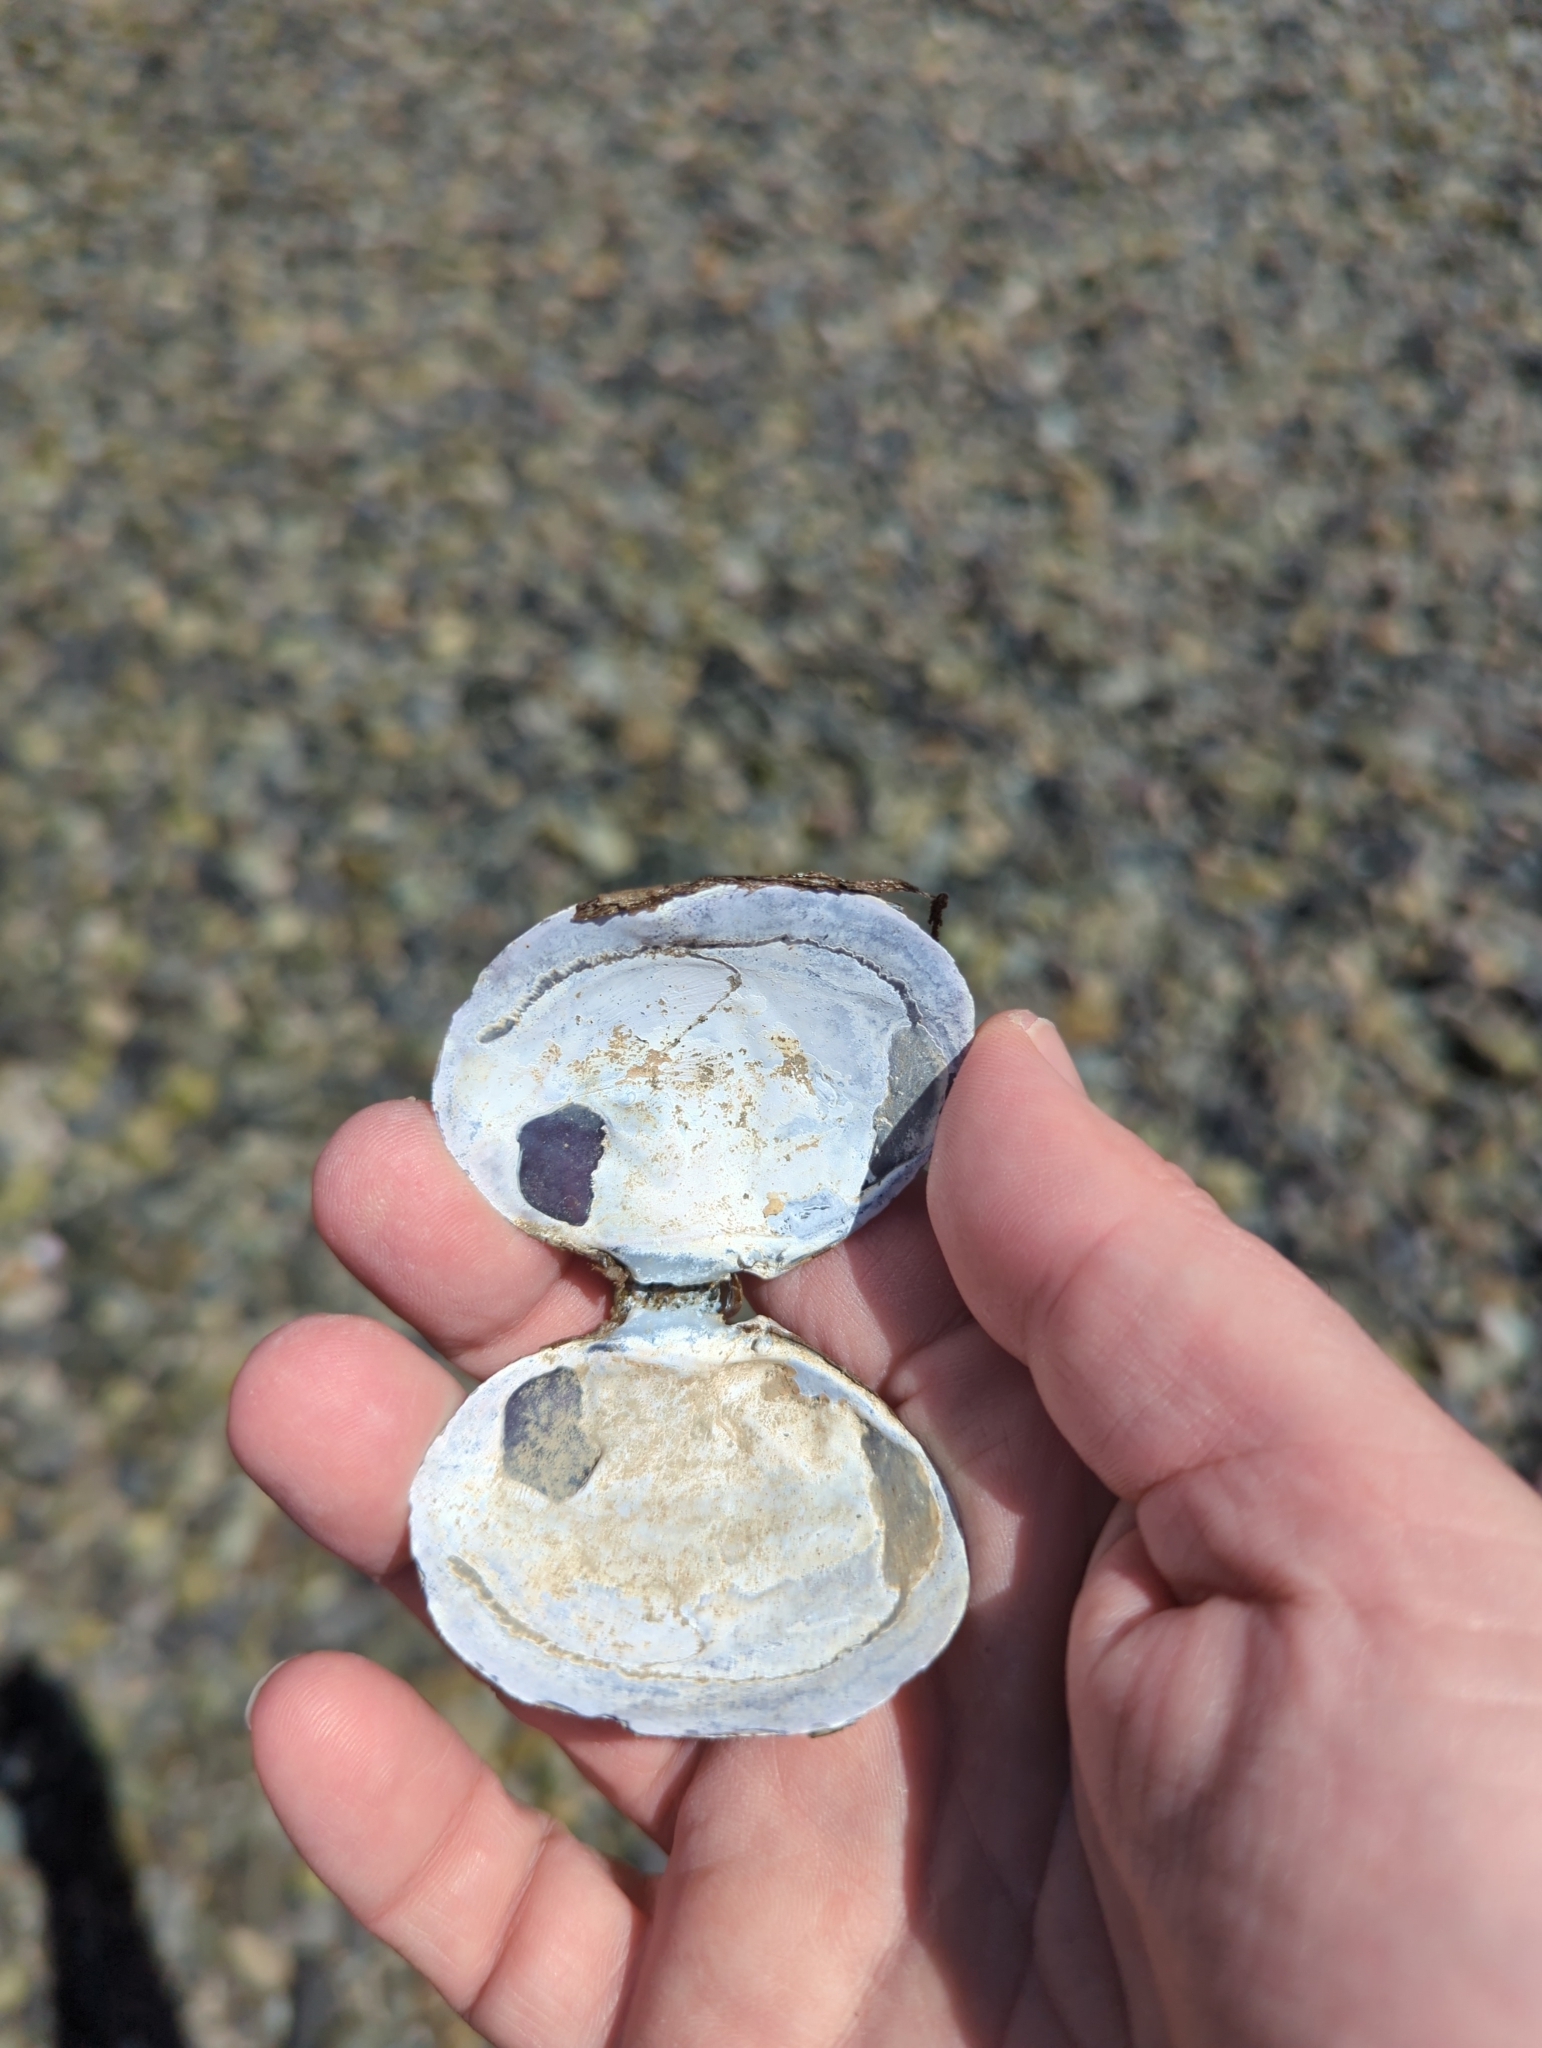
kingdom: Animalia
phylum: Mollusca
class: Bivalvia
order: Cardiida
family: Psammobiidae
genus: Nuttallia
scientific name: Nuttallia obscurata
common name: Purple mahogany-clam
